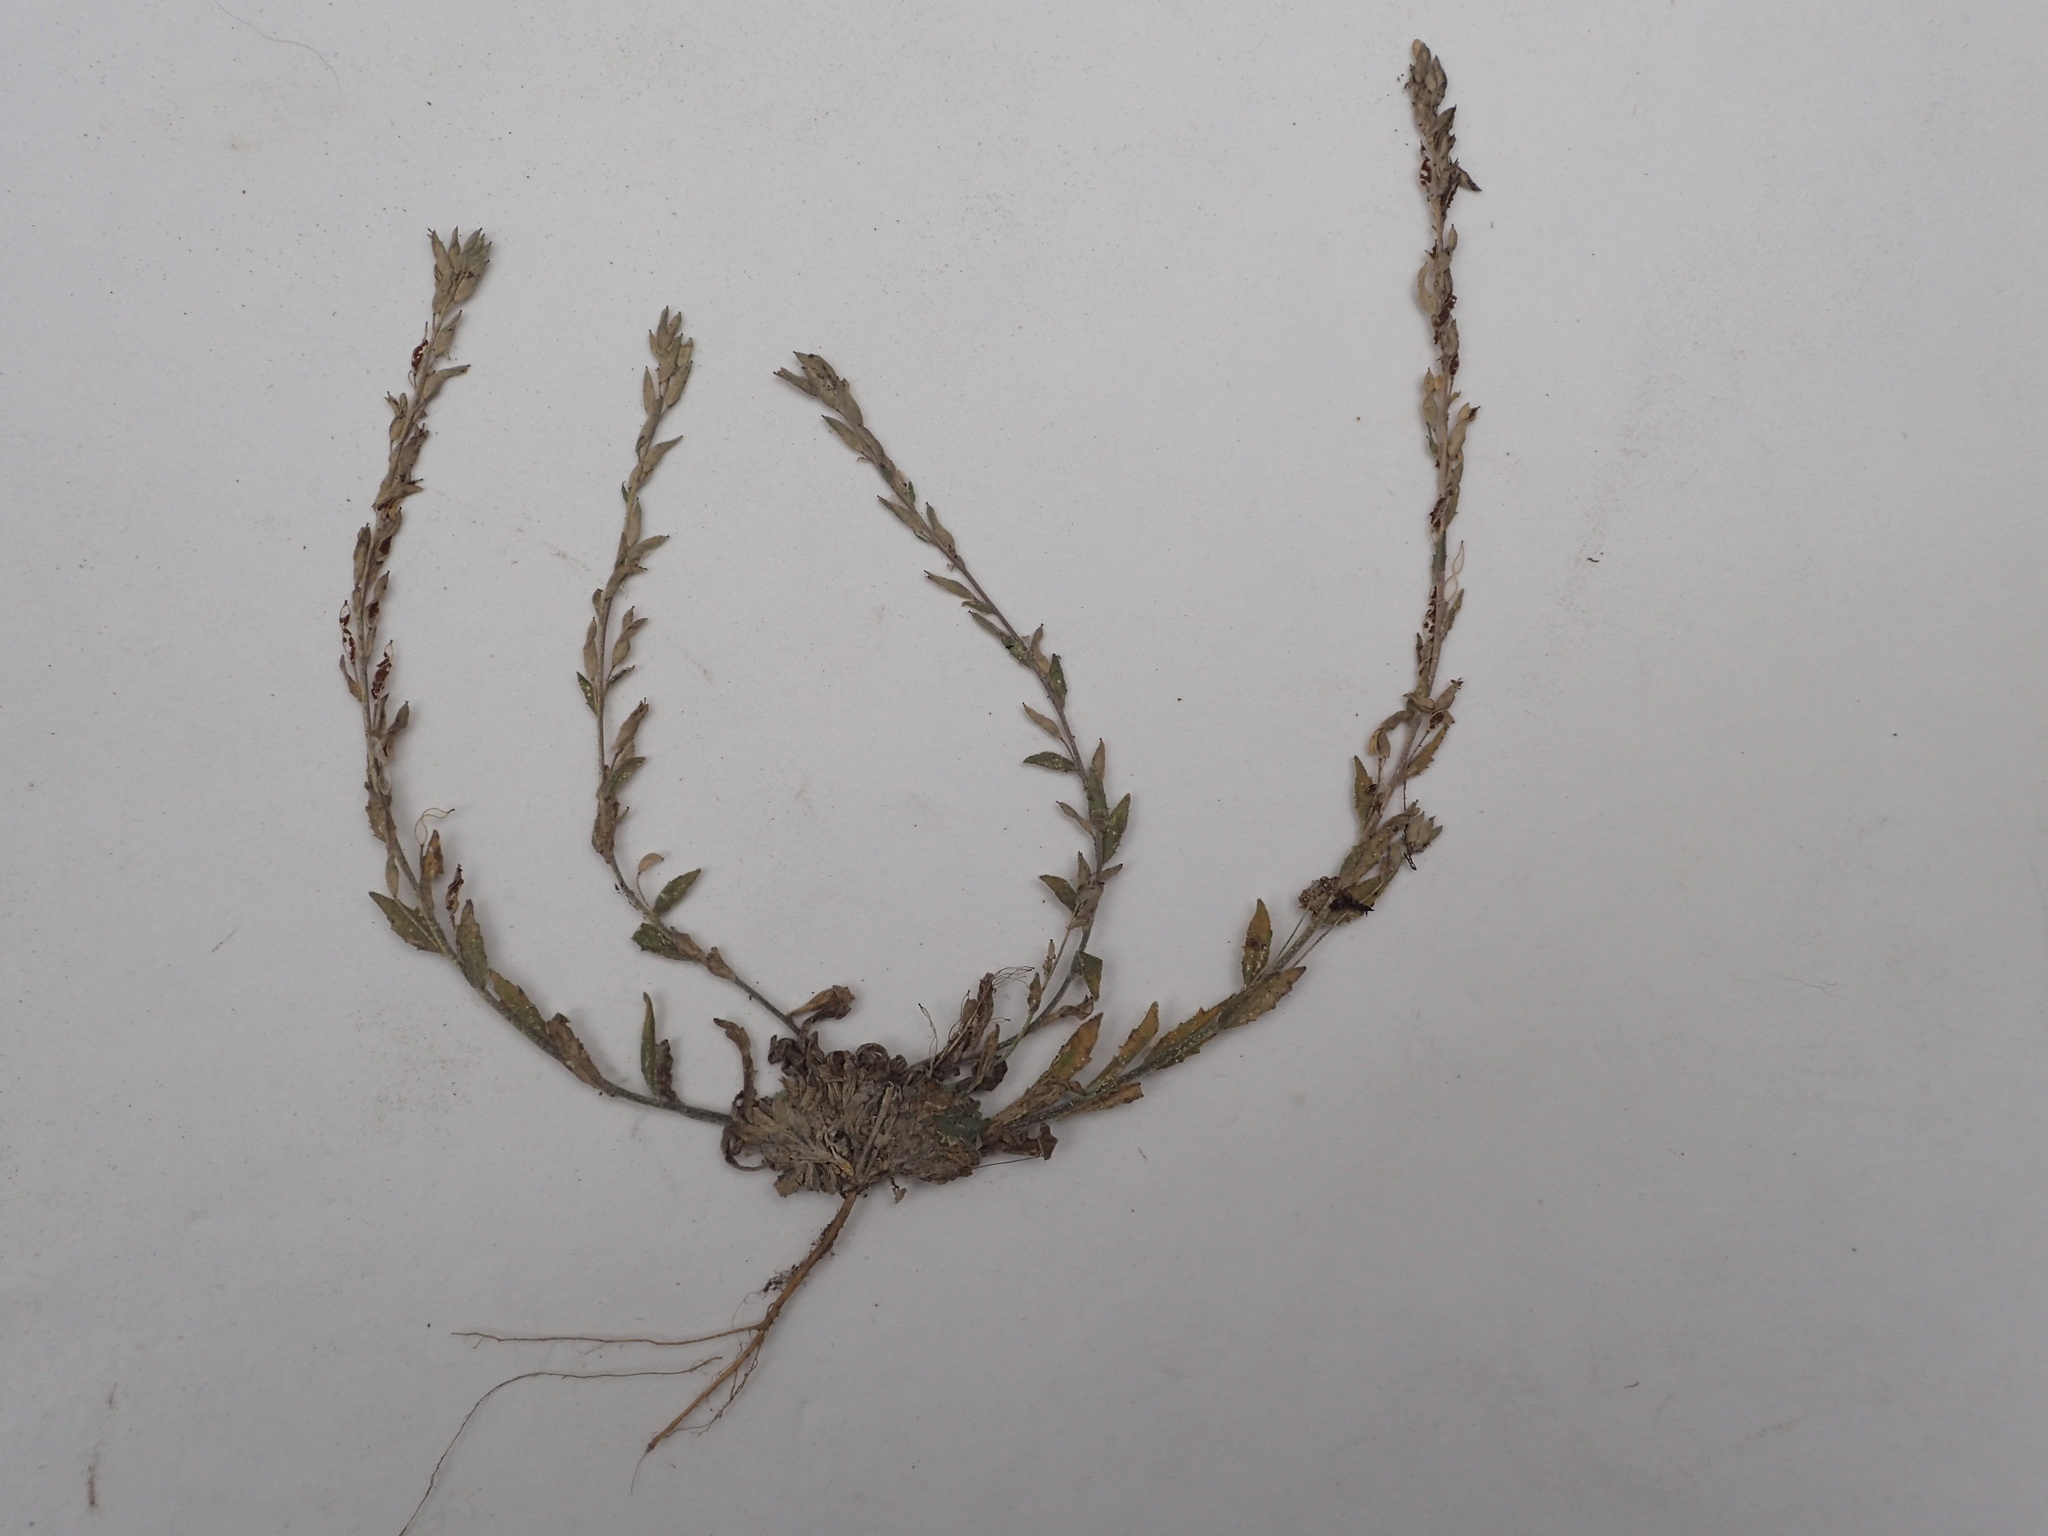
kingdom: Plantae
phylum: Tracheophyta
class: Magnoliopsida
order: Brassicales
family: Brassicaceae
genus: Draba
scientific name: Draba cana
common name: Hoary draba
